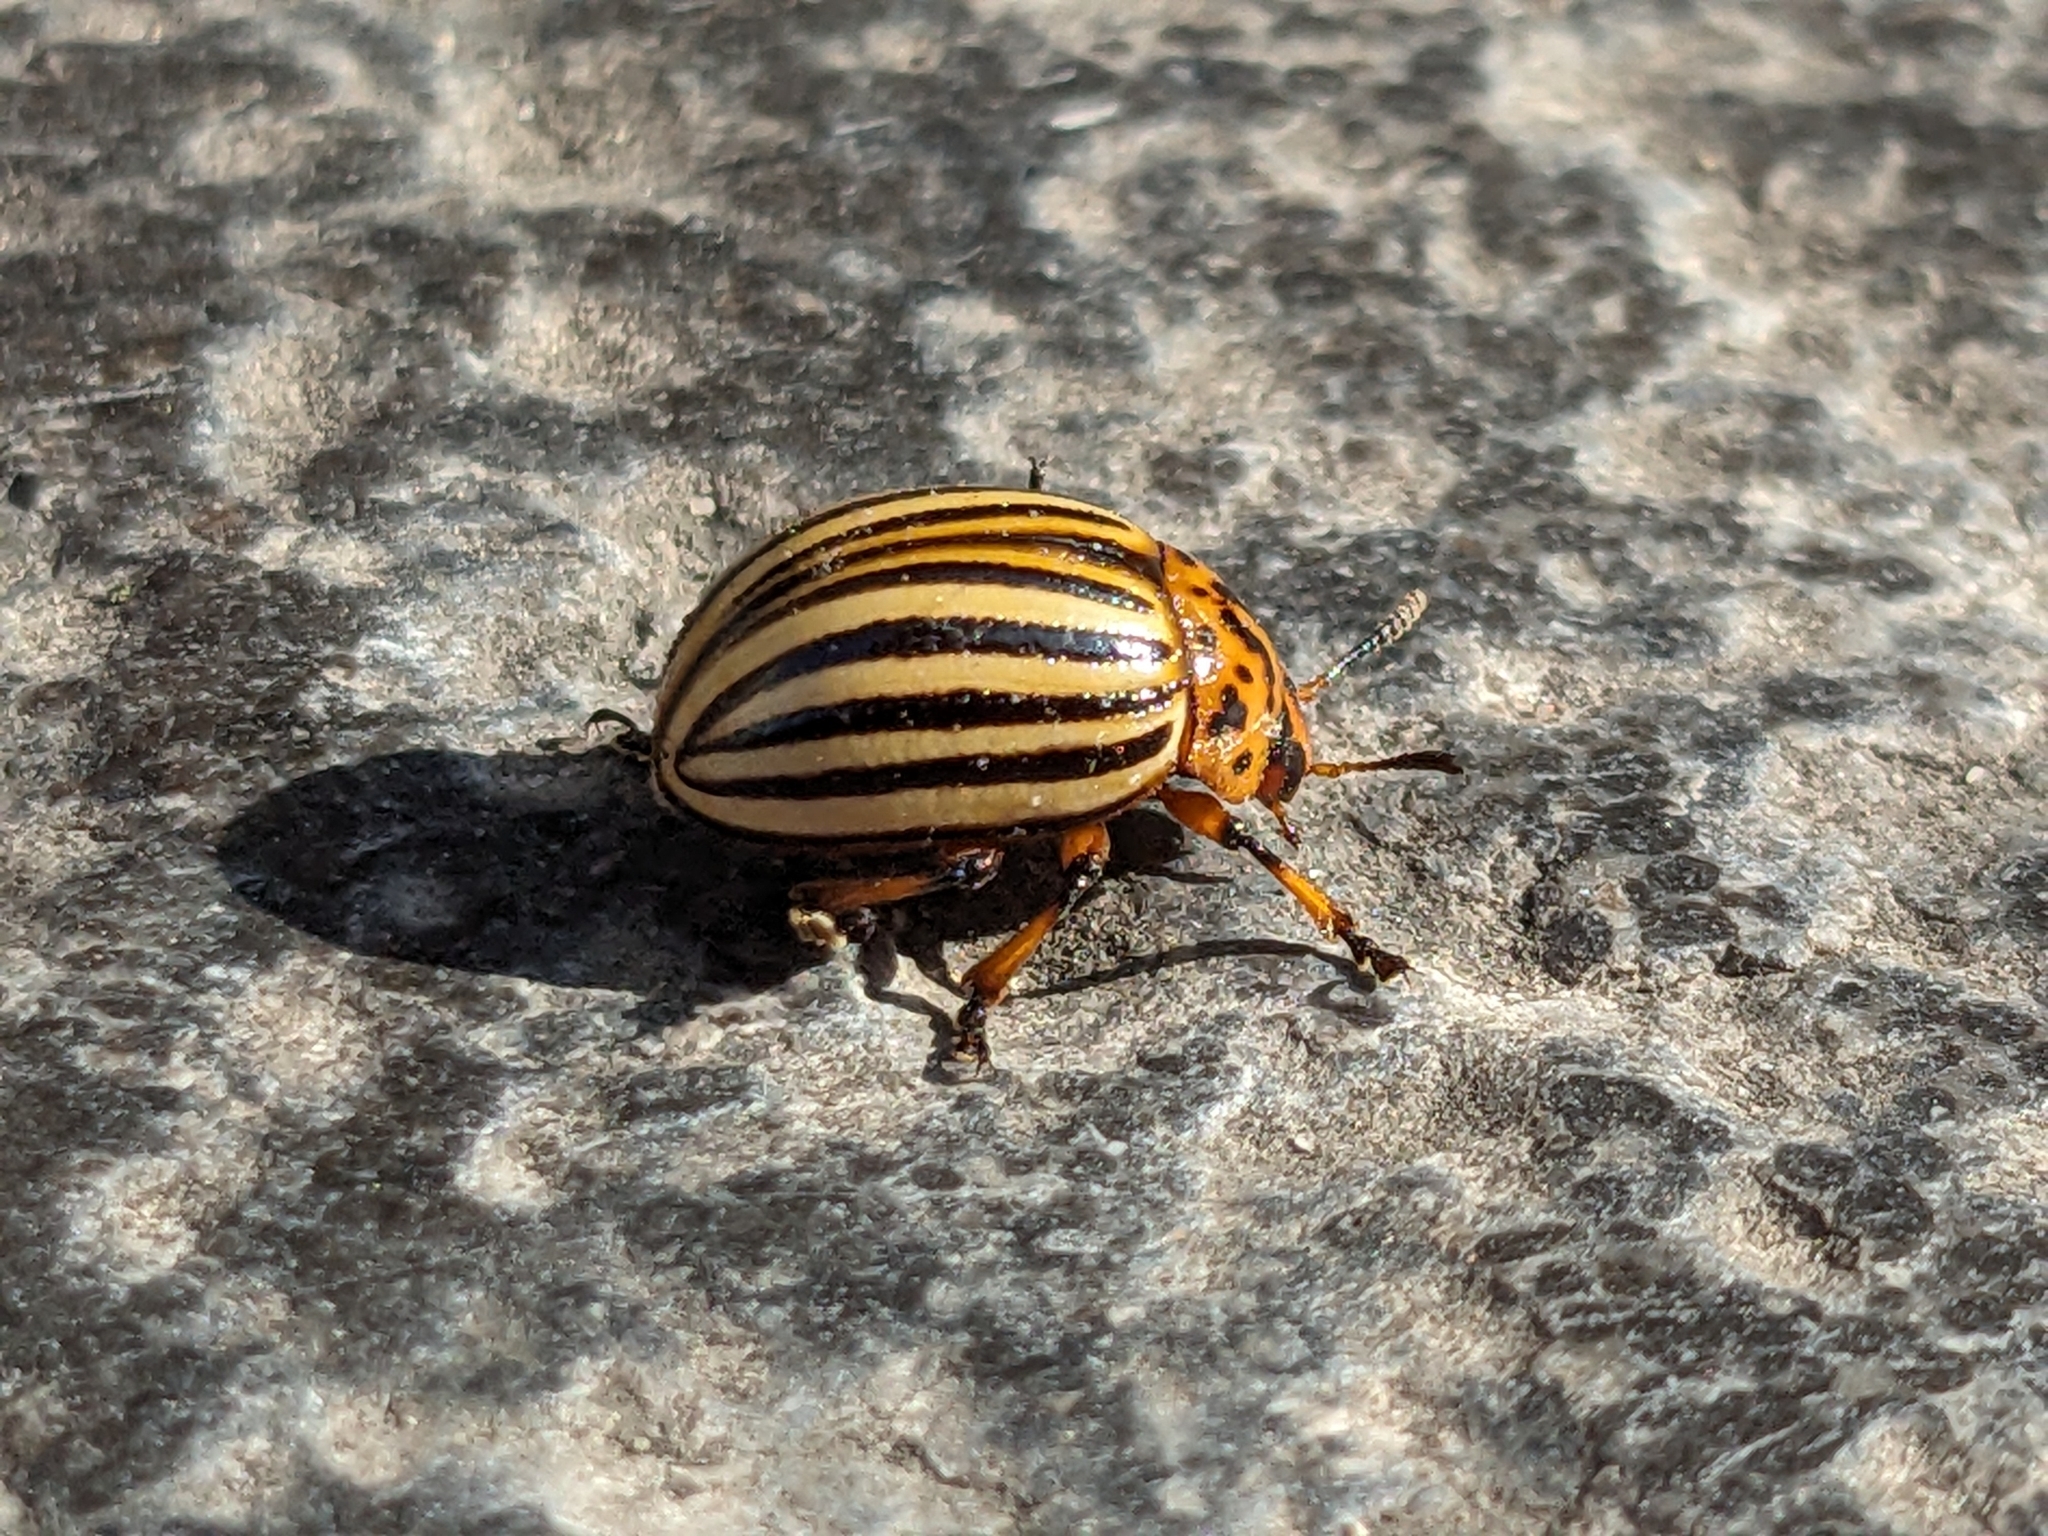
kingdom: Animalia
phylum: Arthropoda
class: Insecta
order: Coleoptera
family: Chrysomelidae
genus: Leptinotarsa
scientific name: Leptinotarsa decemlineata
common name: Colorado potato beetle
